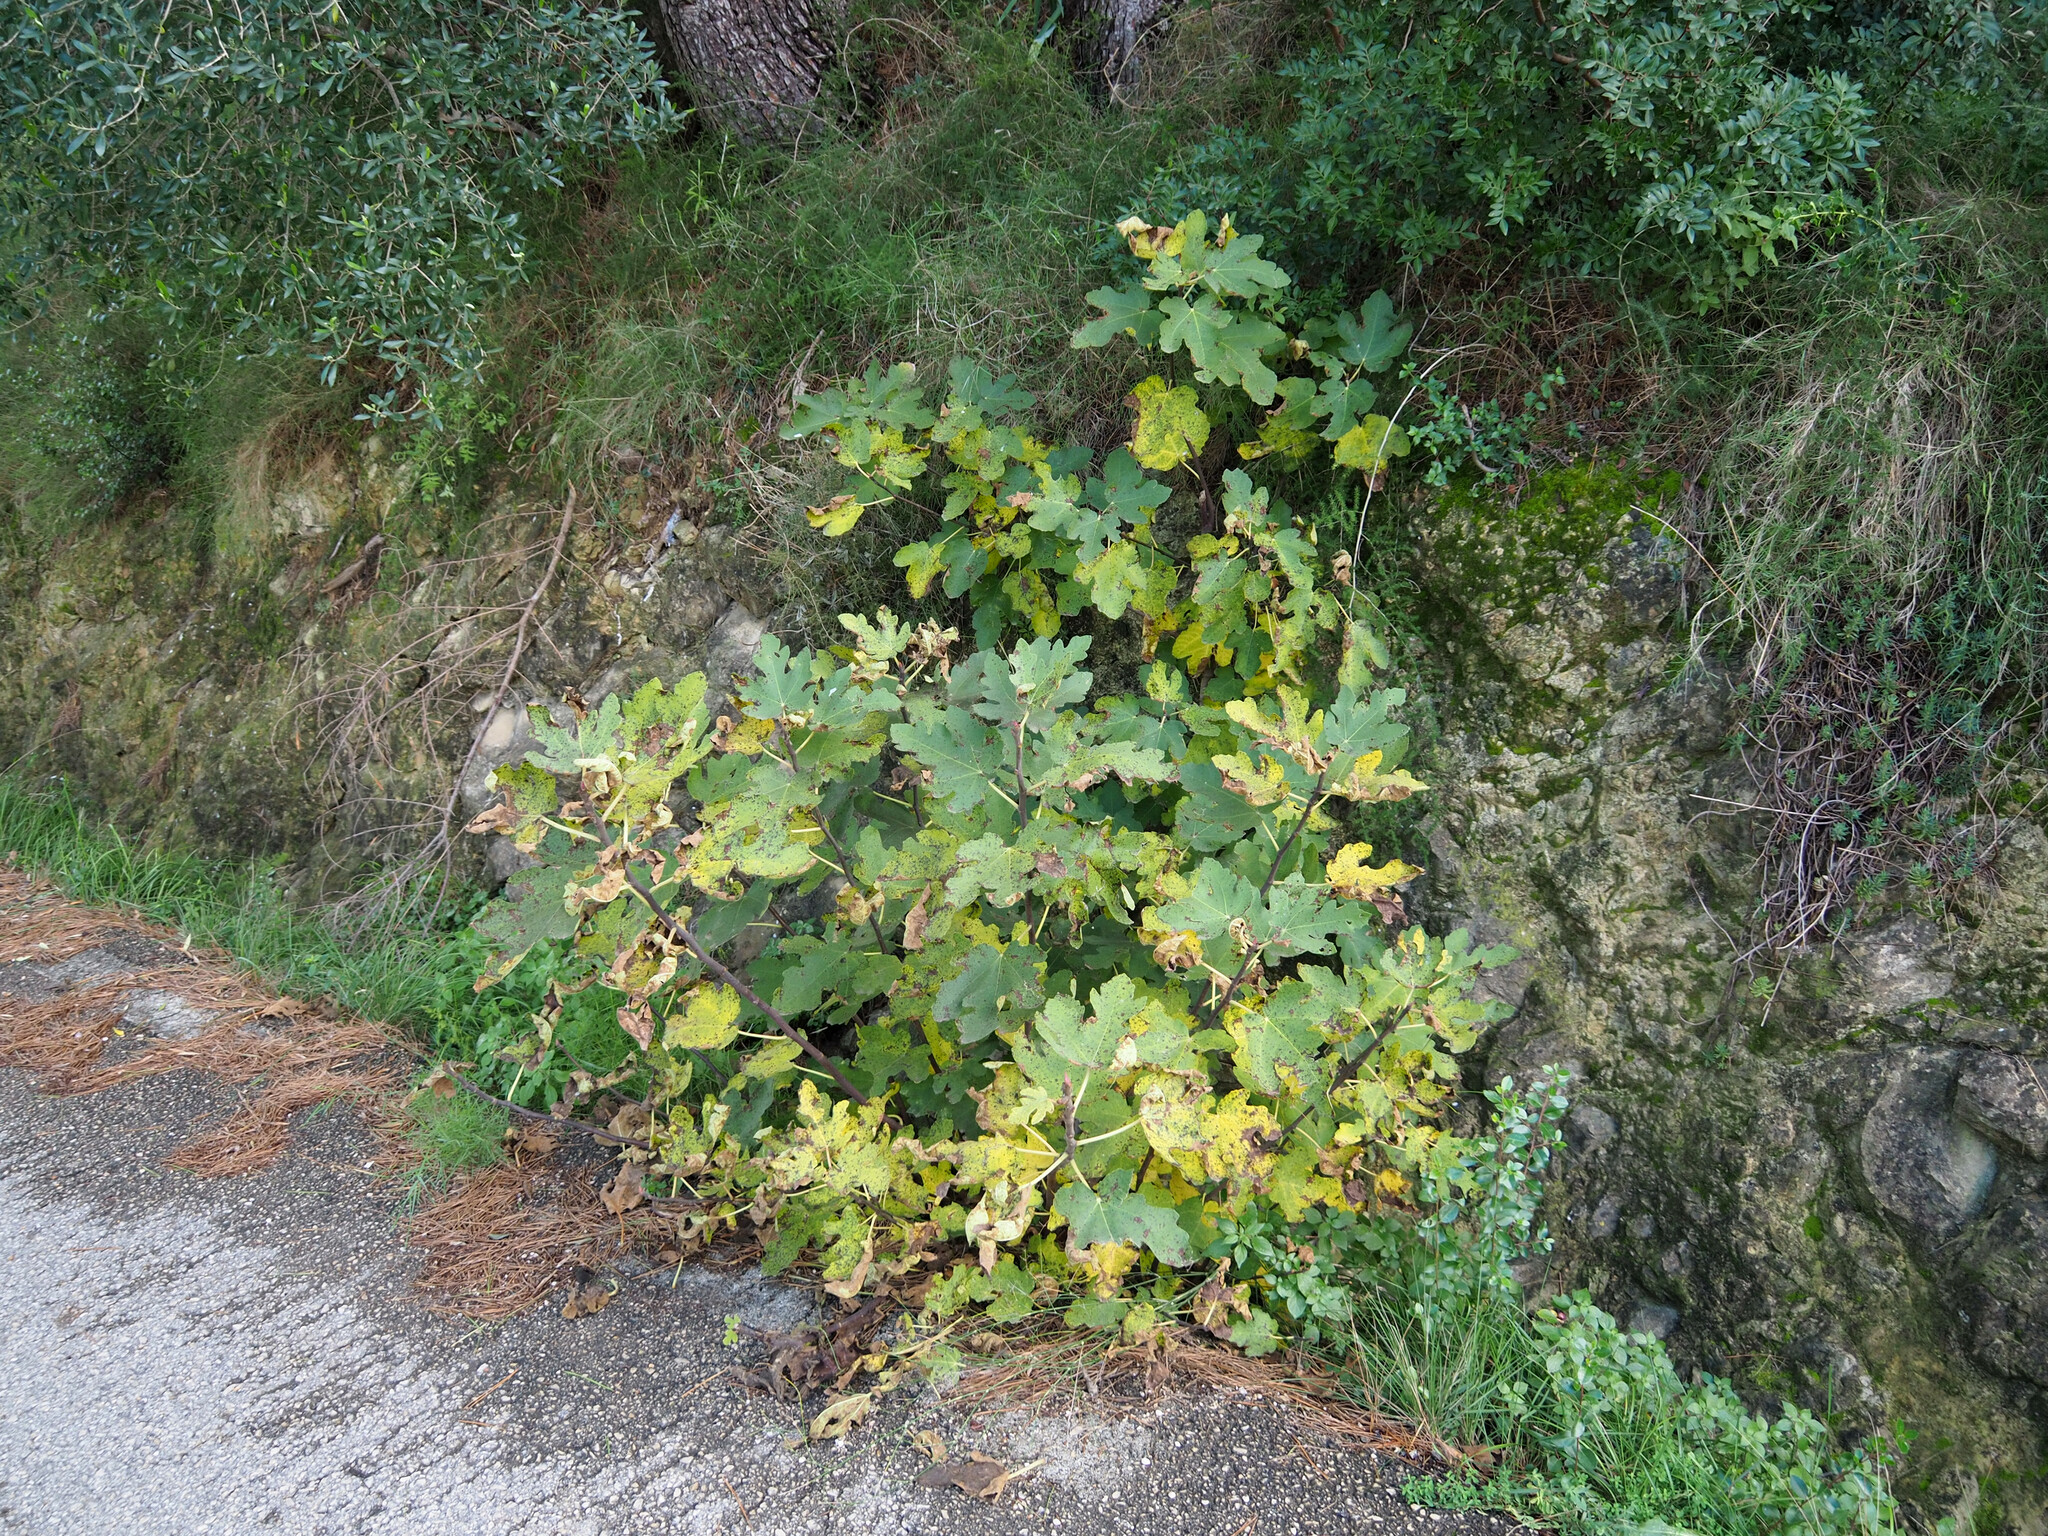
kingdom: Plantae
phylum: Tracheophyta
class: Magnoliopsida
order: Rosales
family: Moraceae
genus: Ficus
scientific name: Ficus carica
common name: Fig
